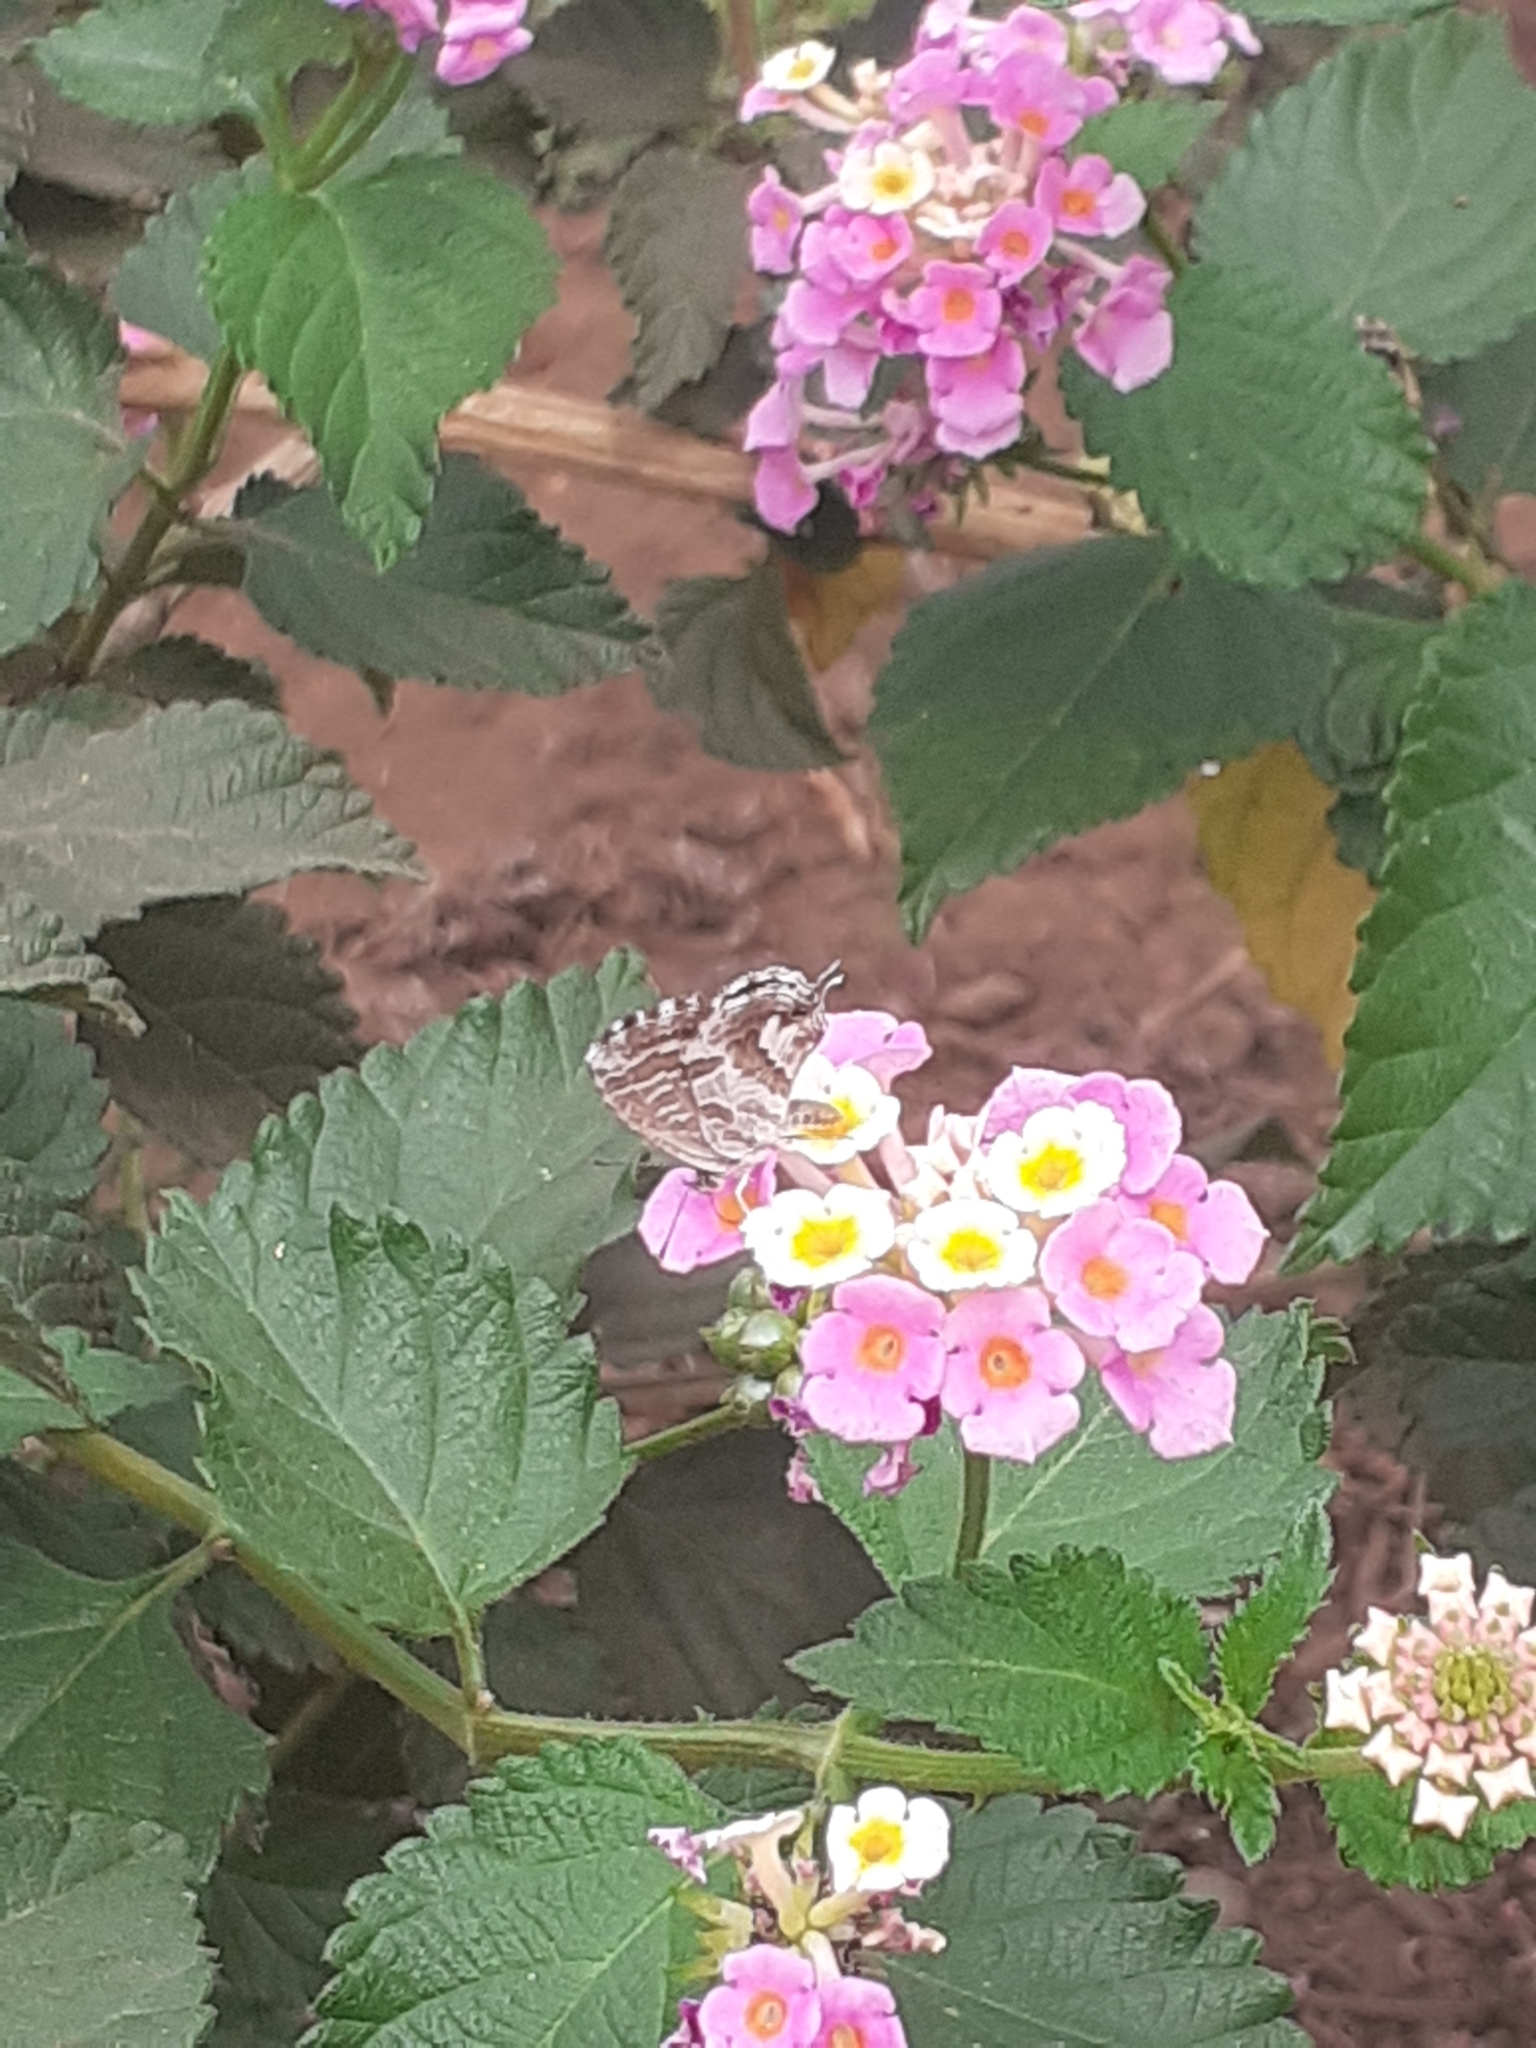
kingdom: Animalia
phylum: Arthropoda
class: Insecta
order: Lepidoptera
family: Lycaenidae
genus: Cacyreus
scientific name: Cacyreus marshalli
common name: Geranium bronze
